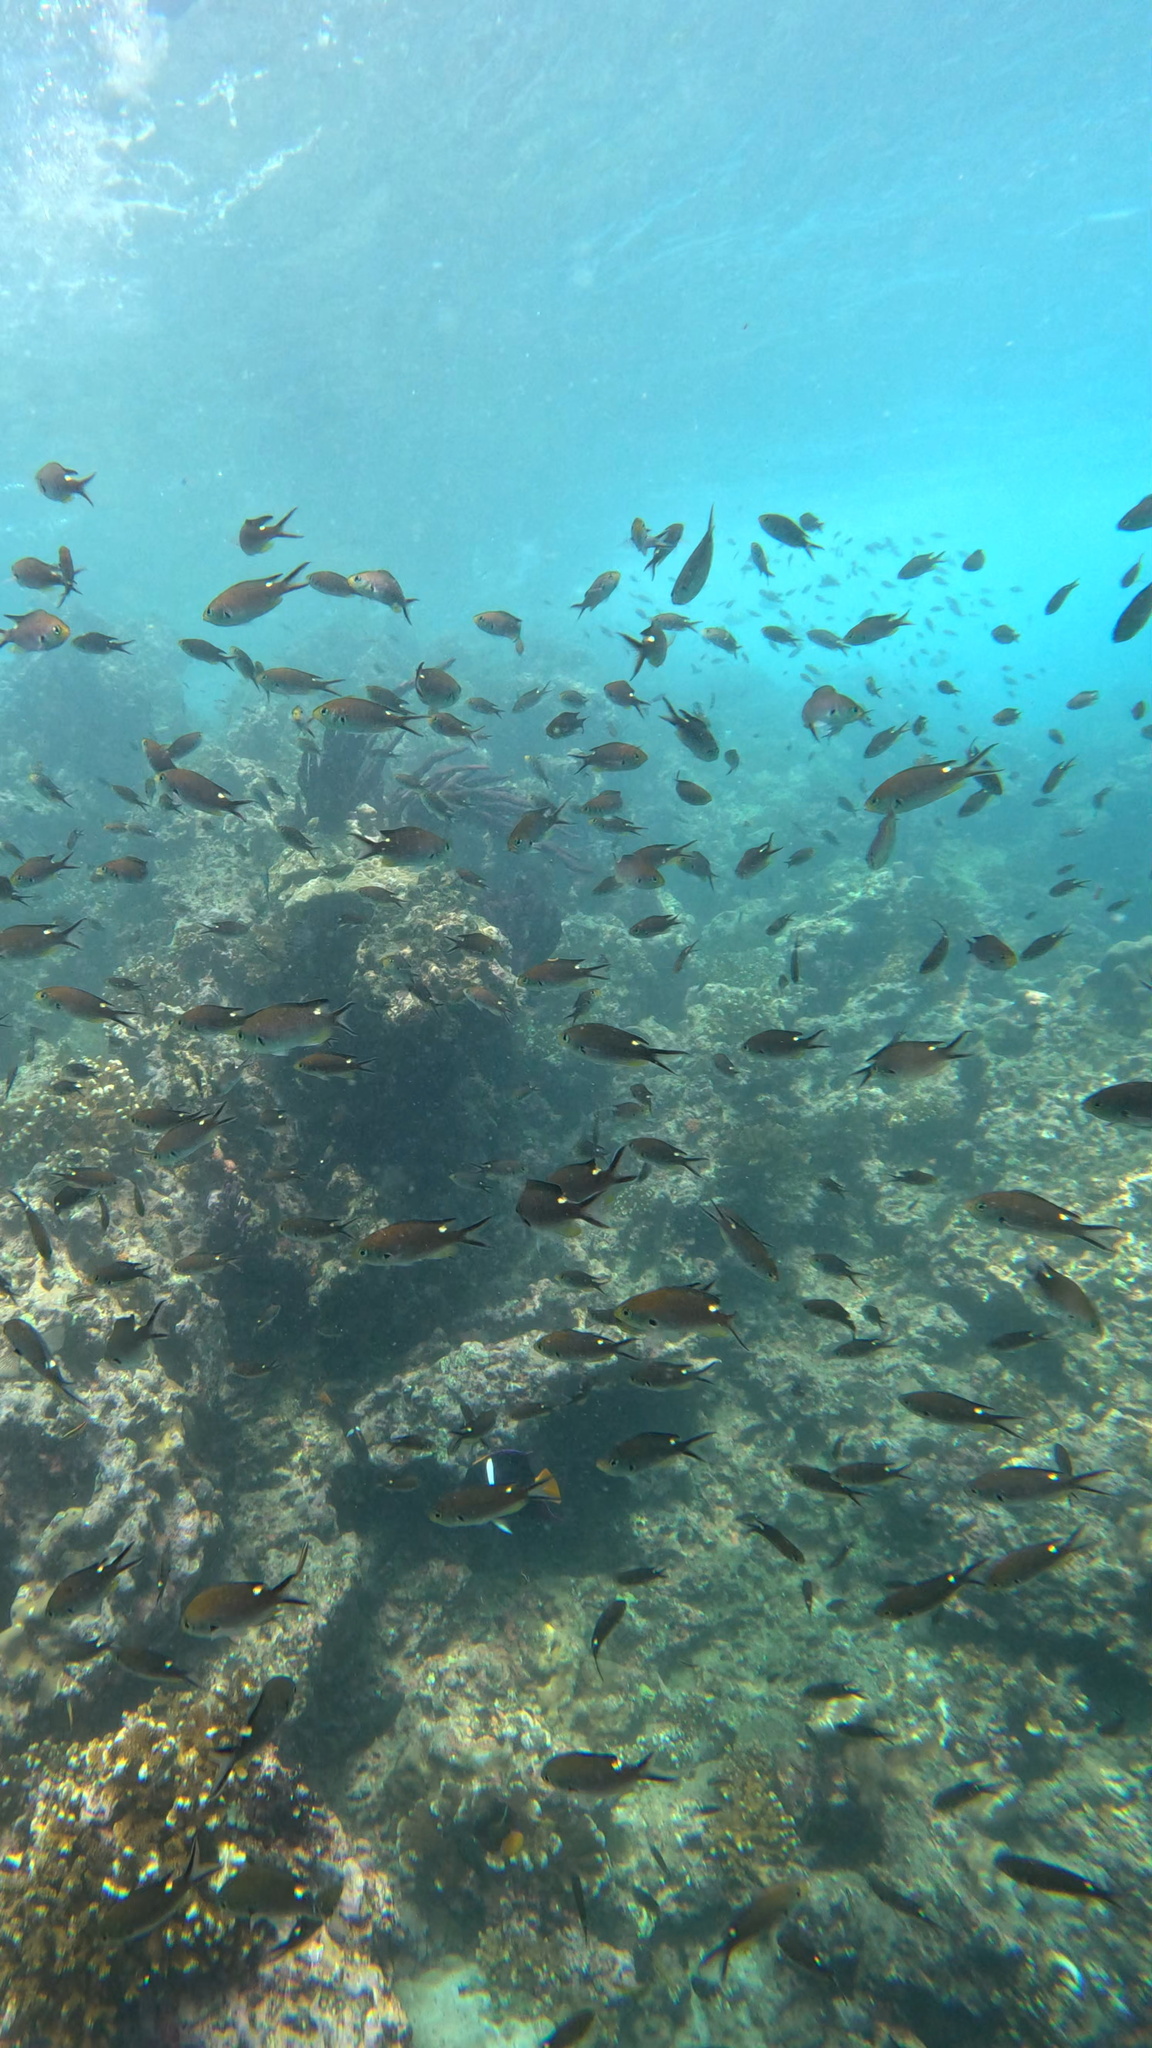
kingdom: Animalia
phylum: Chordata
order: Perciformes
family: Pomacentridae
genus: Chromis
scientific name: Chromis atrilobata
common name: Scissortail damselfish
